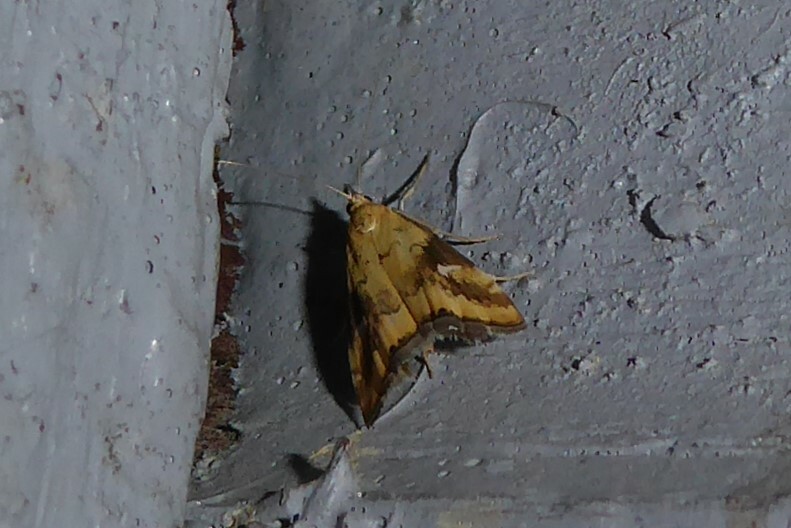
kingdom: Animalia
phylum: Arthropoda
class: Insecta
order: Lepidoptera
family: Crambidae
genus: Glaucocharis
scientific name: Glaucocharis lepidella
